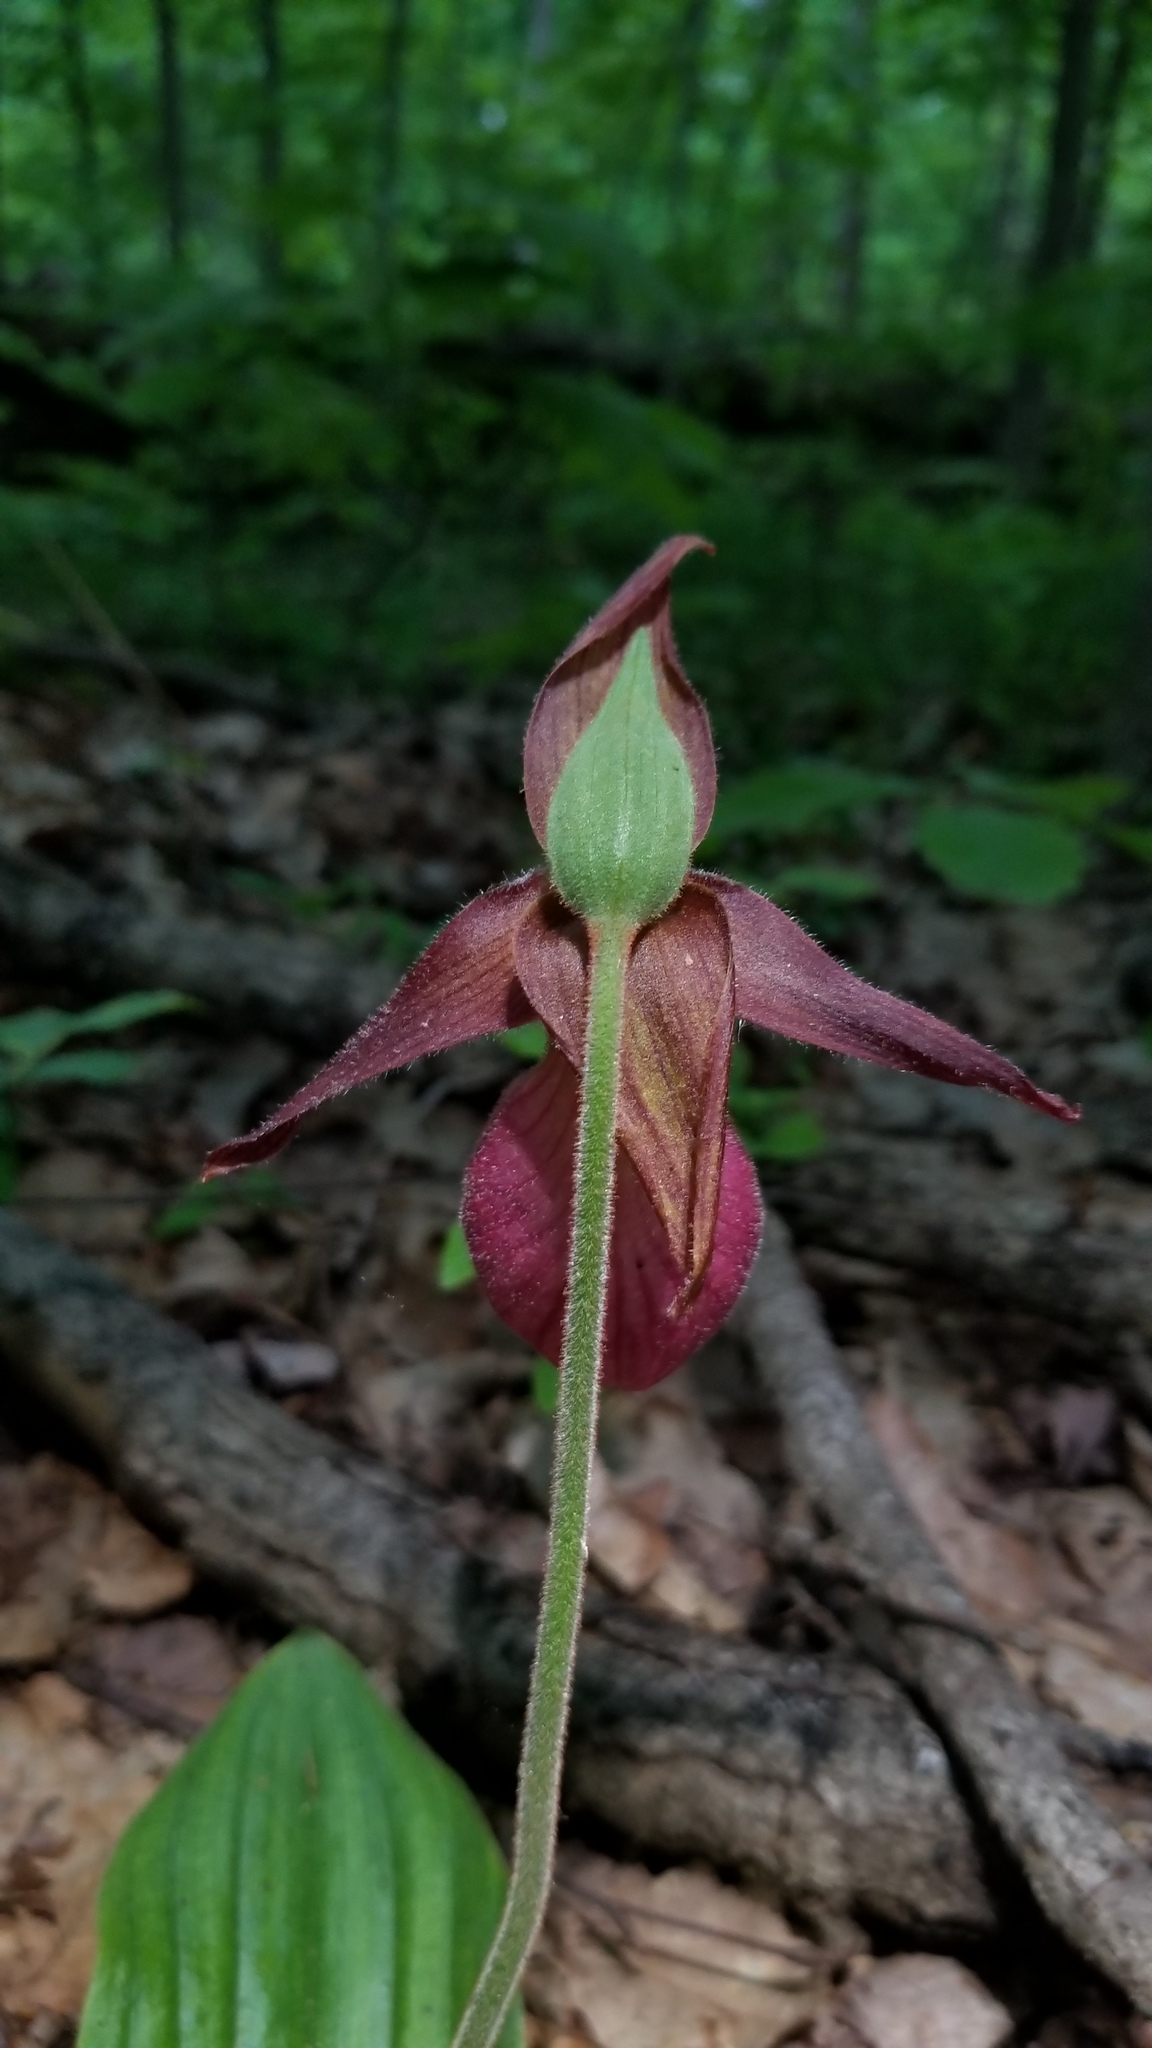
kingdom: Plantae
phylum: Tracheophyta
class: Liliopsida
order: Asparagales
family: Orchidaceae
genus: Cypripedium
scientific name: Cypripedium acaule
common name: Pink lady's-slipper
